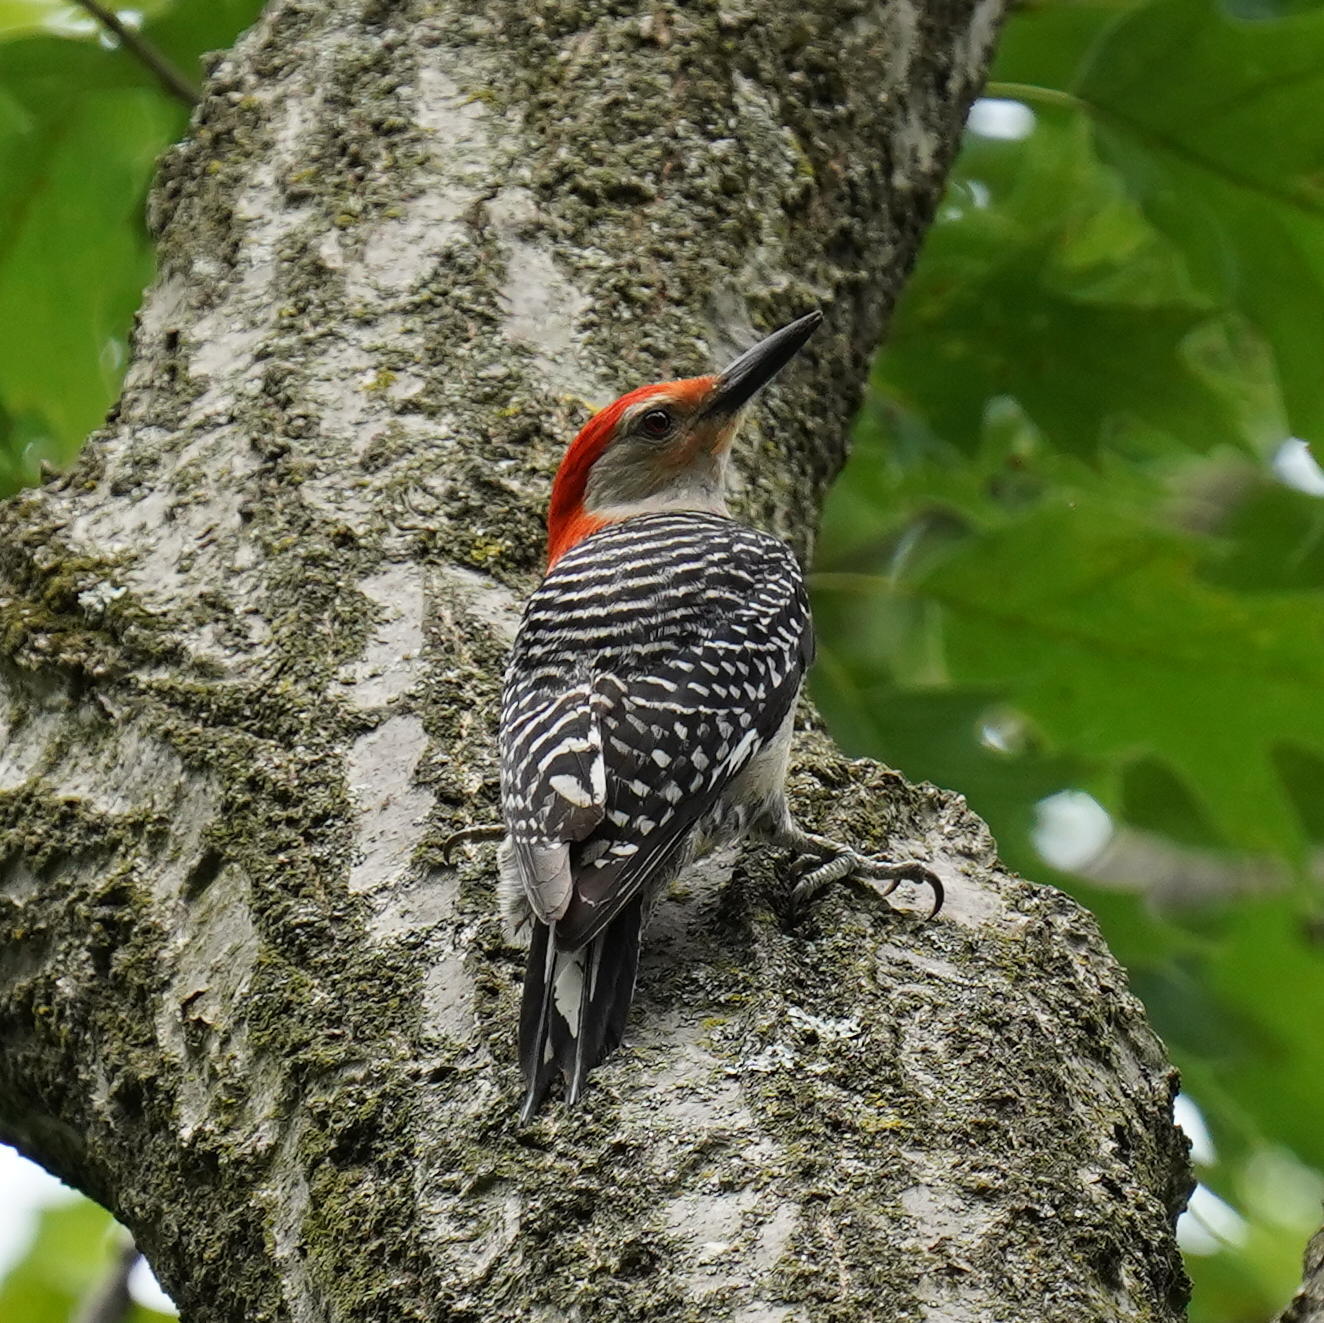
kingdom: Animalia
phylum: Chordata
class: Aves
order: Piciformes
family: Picidae
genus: Melanerpes
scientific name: Melanerpes carolinus
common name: Red-bellied woodpecker
